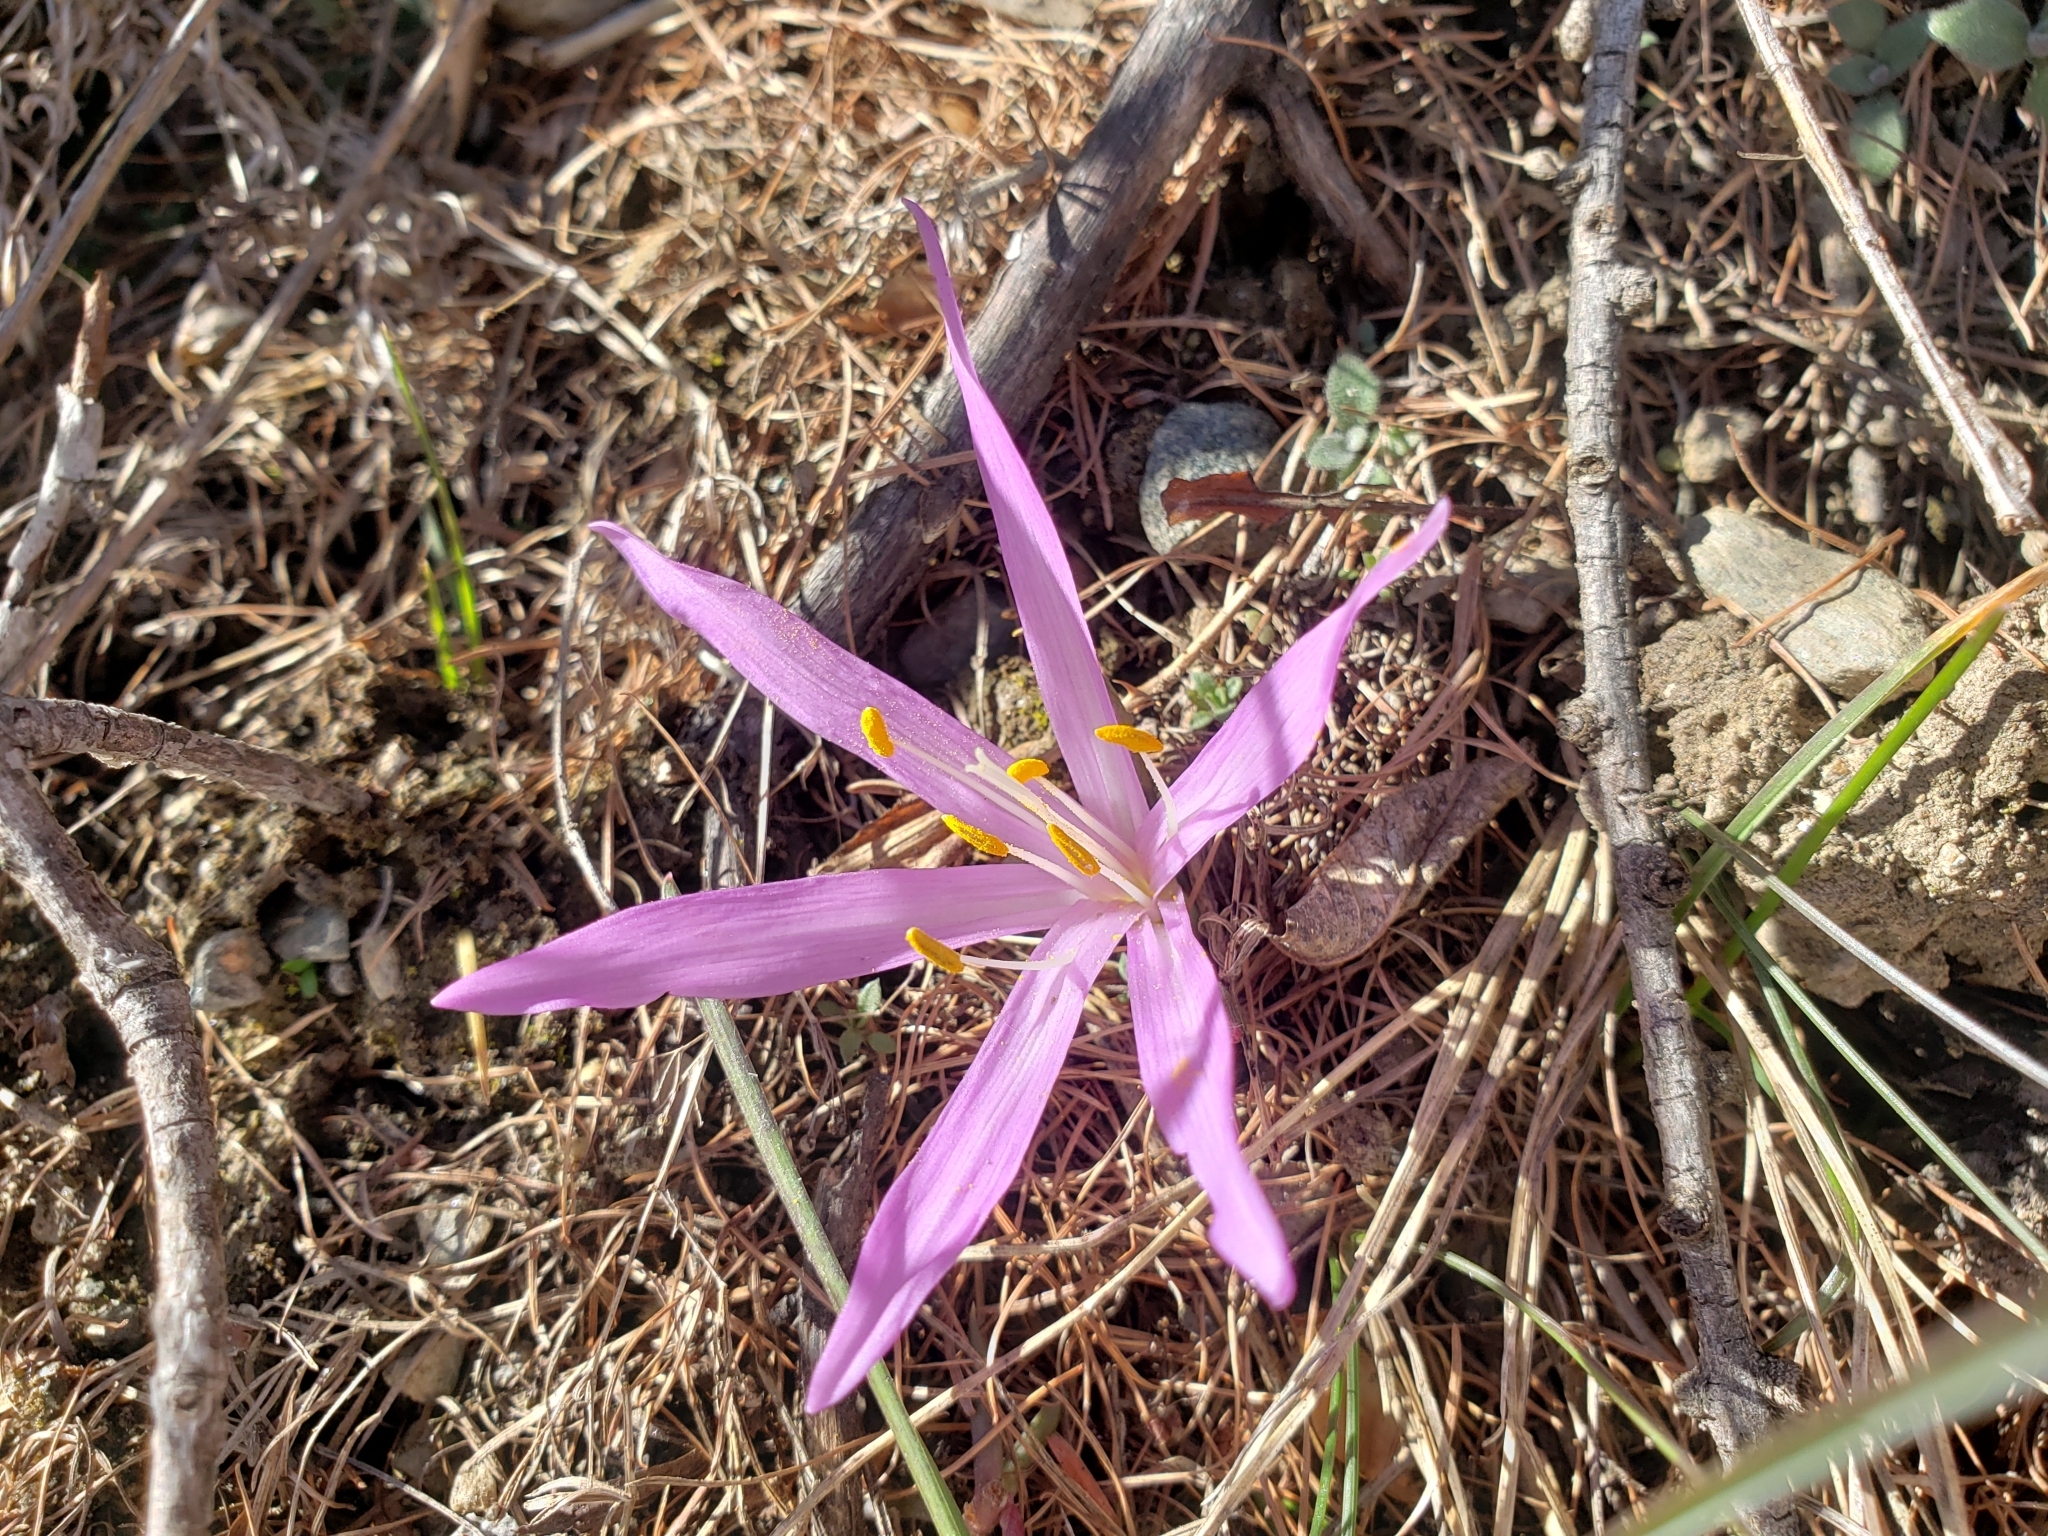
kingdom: Plantae
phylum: Tracheophyta
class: Liliopsida
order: Liliales
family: Colchicaceae
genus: Colchicum
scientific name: Colchicum bulbocodium
